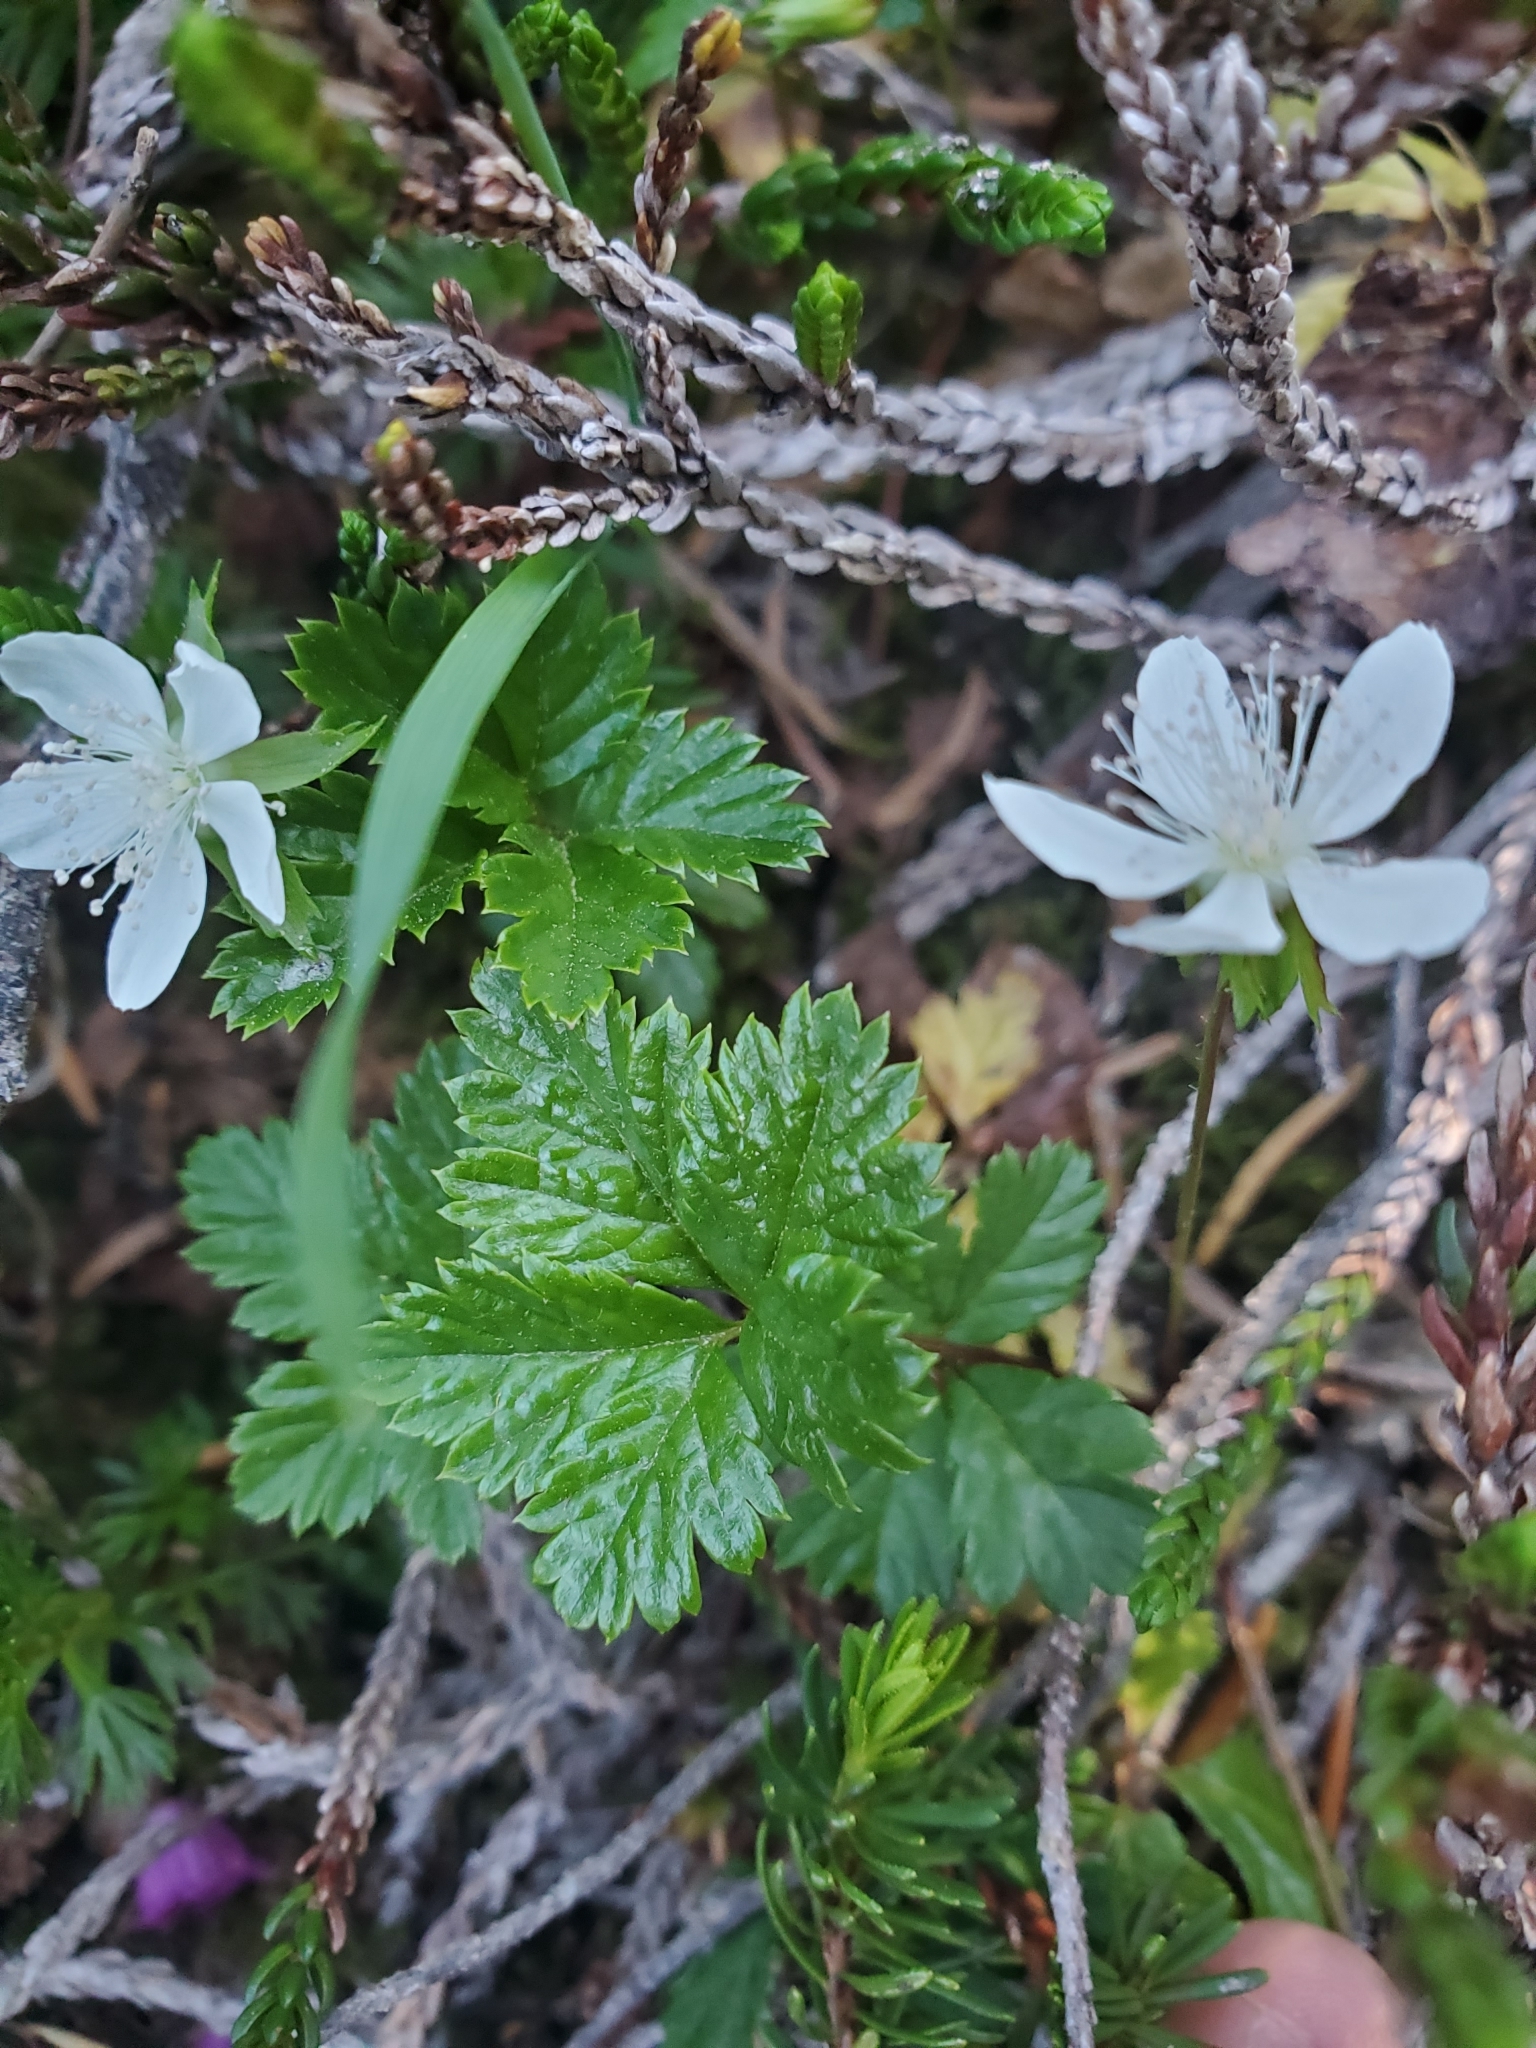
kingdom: Plantae
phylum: Tracheophyta
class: Magnoliopsida
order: Rosales
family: Rosaceae
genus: Rubus
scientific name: Rubus pedatus
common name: Creeping raspberry
